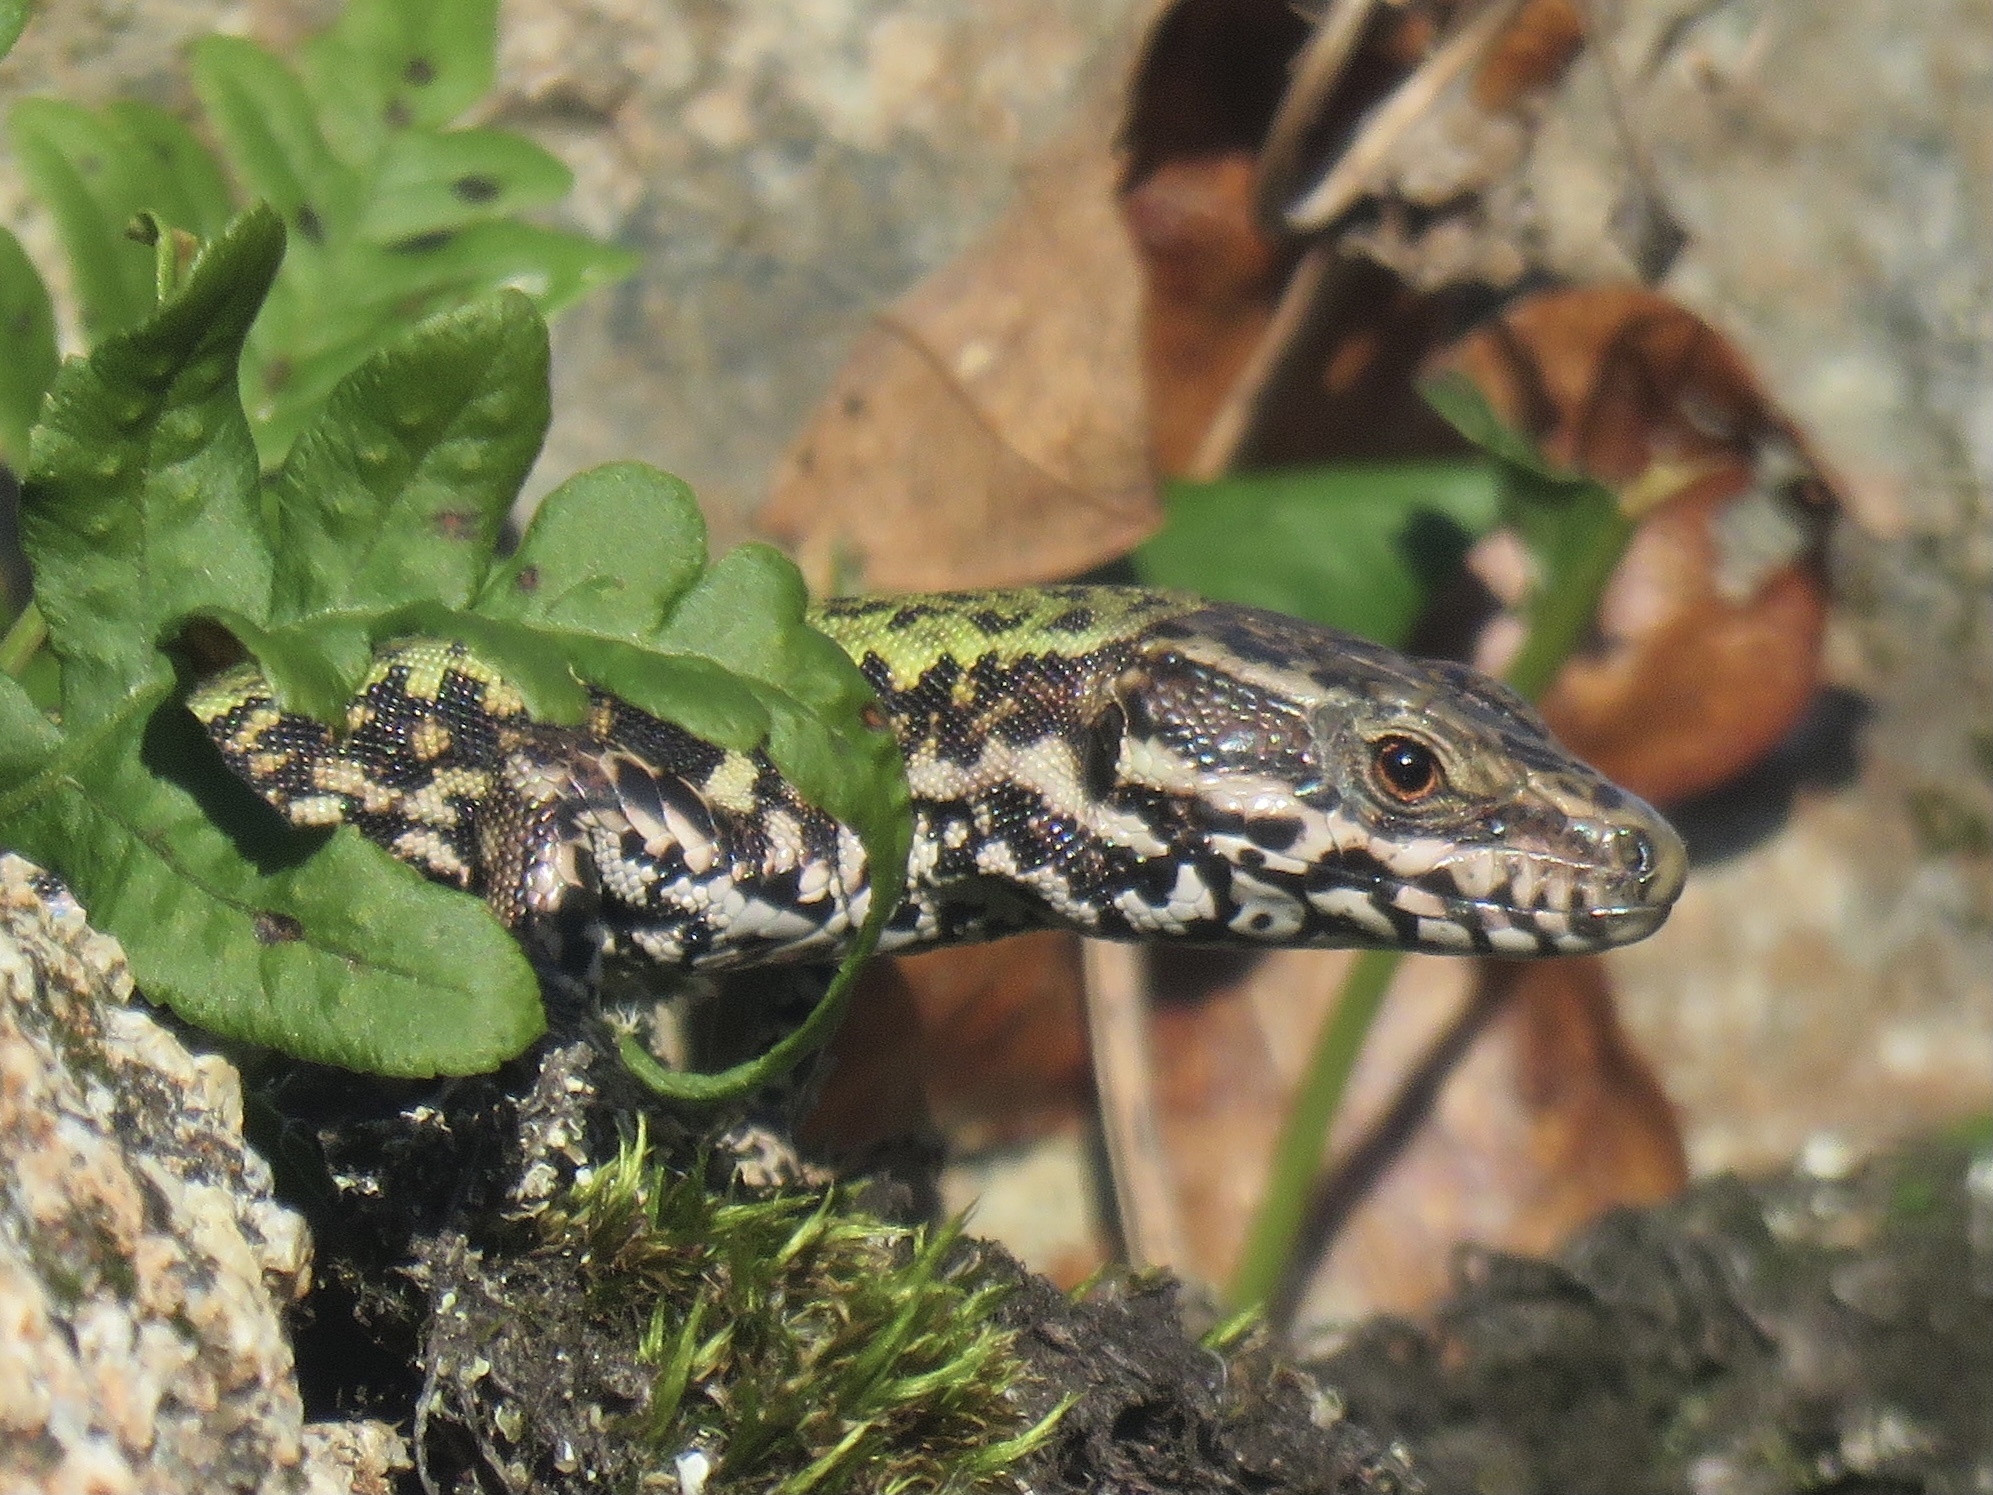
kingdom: Animalia
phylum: Chordata
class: Squamata
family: Lacertidae
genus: Podarcis
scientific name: Podarcis muralis
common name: Common wall lizard
